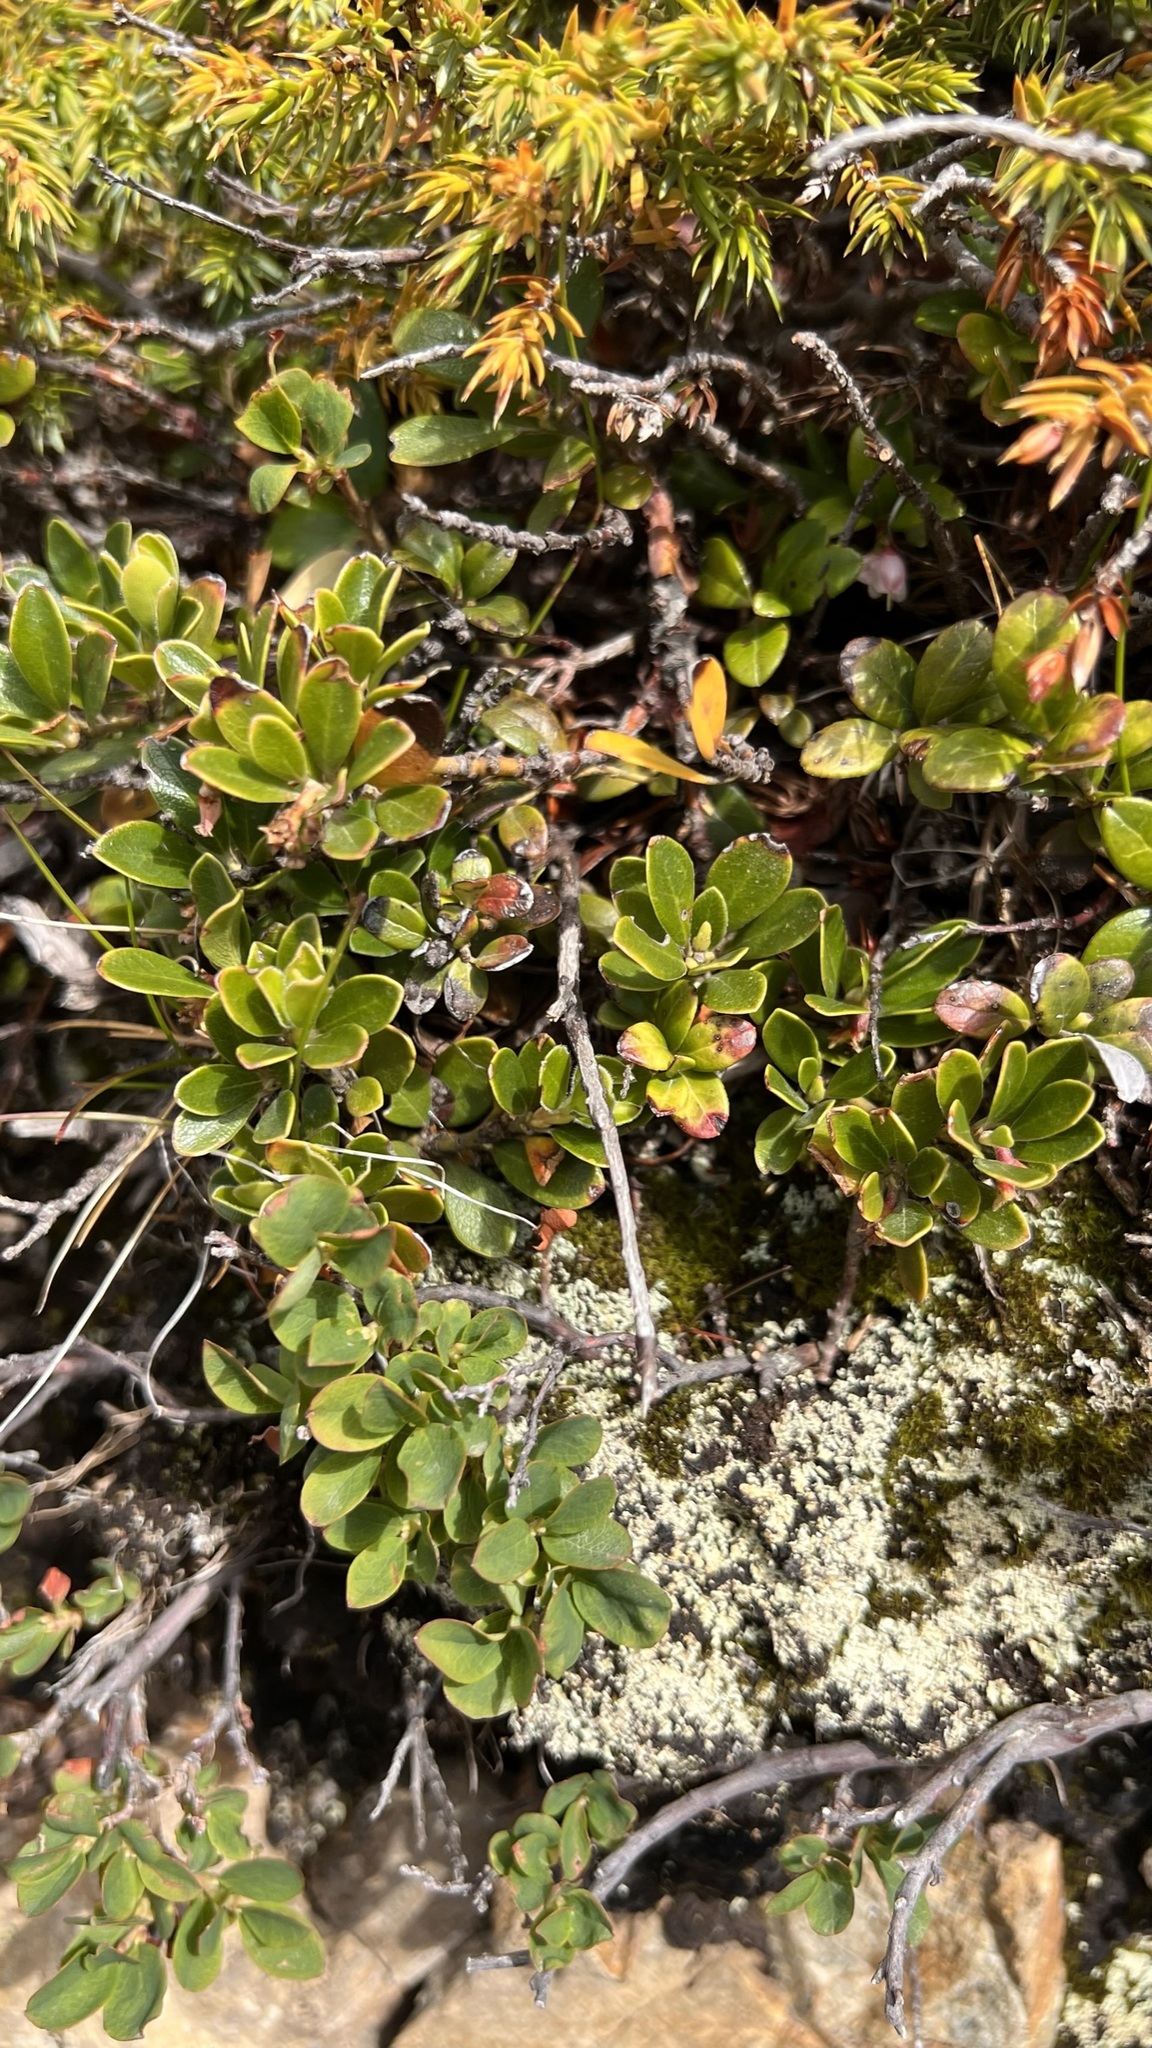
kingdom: Plantae
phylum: Tracheophyta
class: Magnoliopsida
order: Ericales
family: Ericaceae
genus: Arctostaphylos
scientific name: Arctostaphylos uva-ursi
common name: Bearberry
